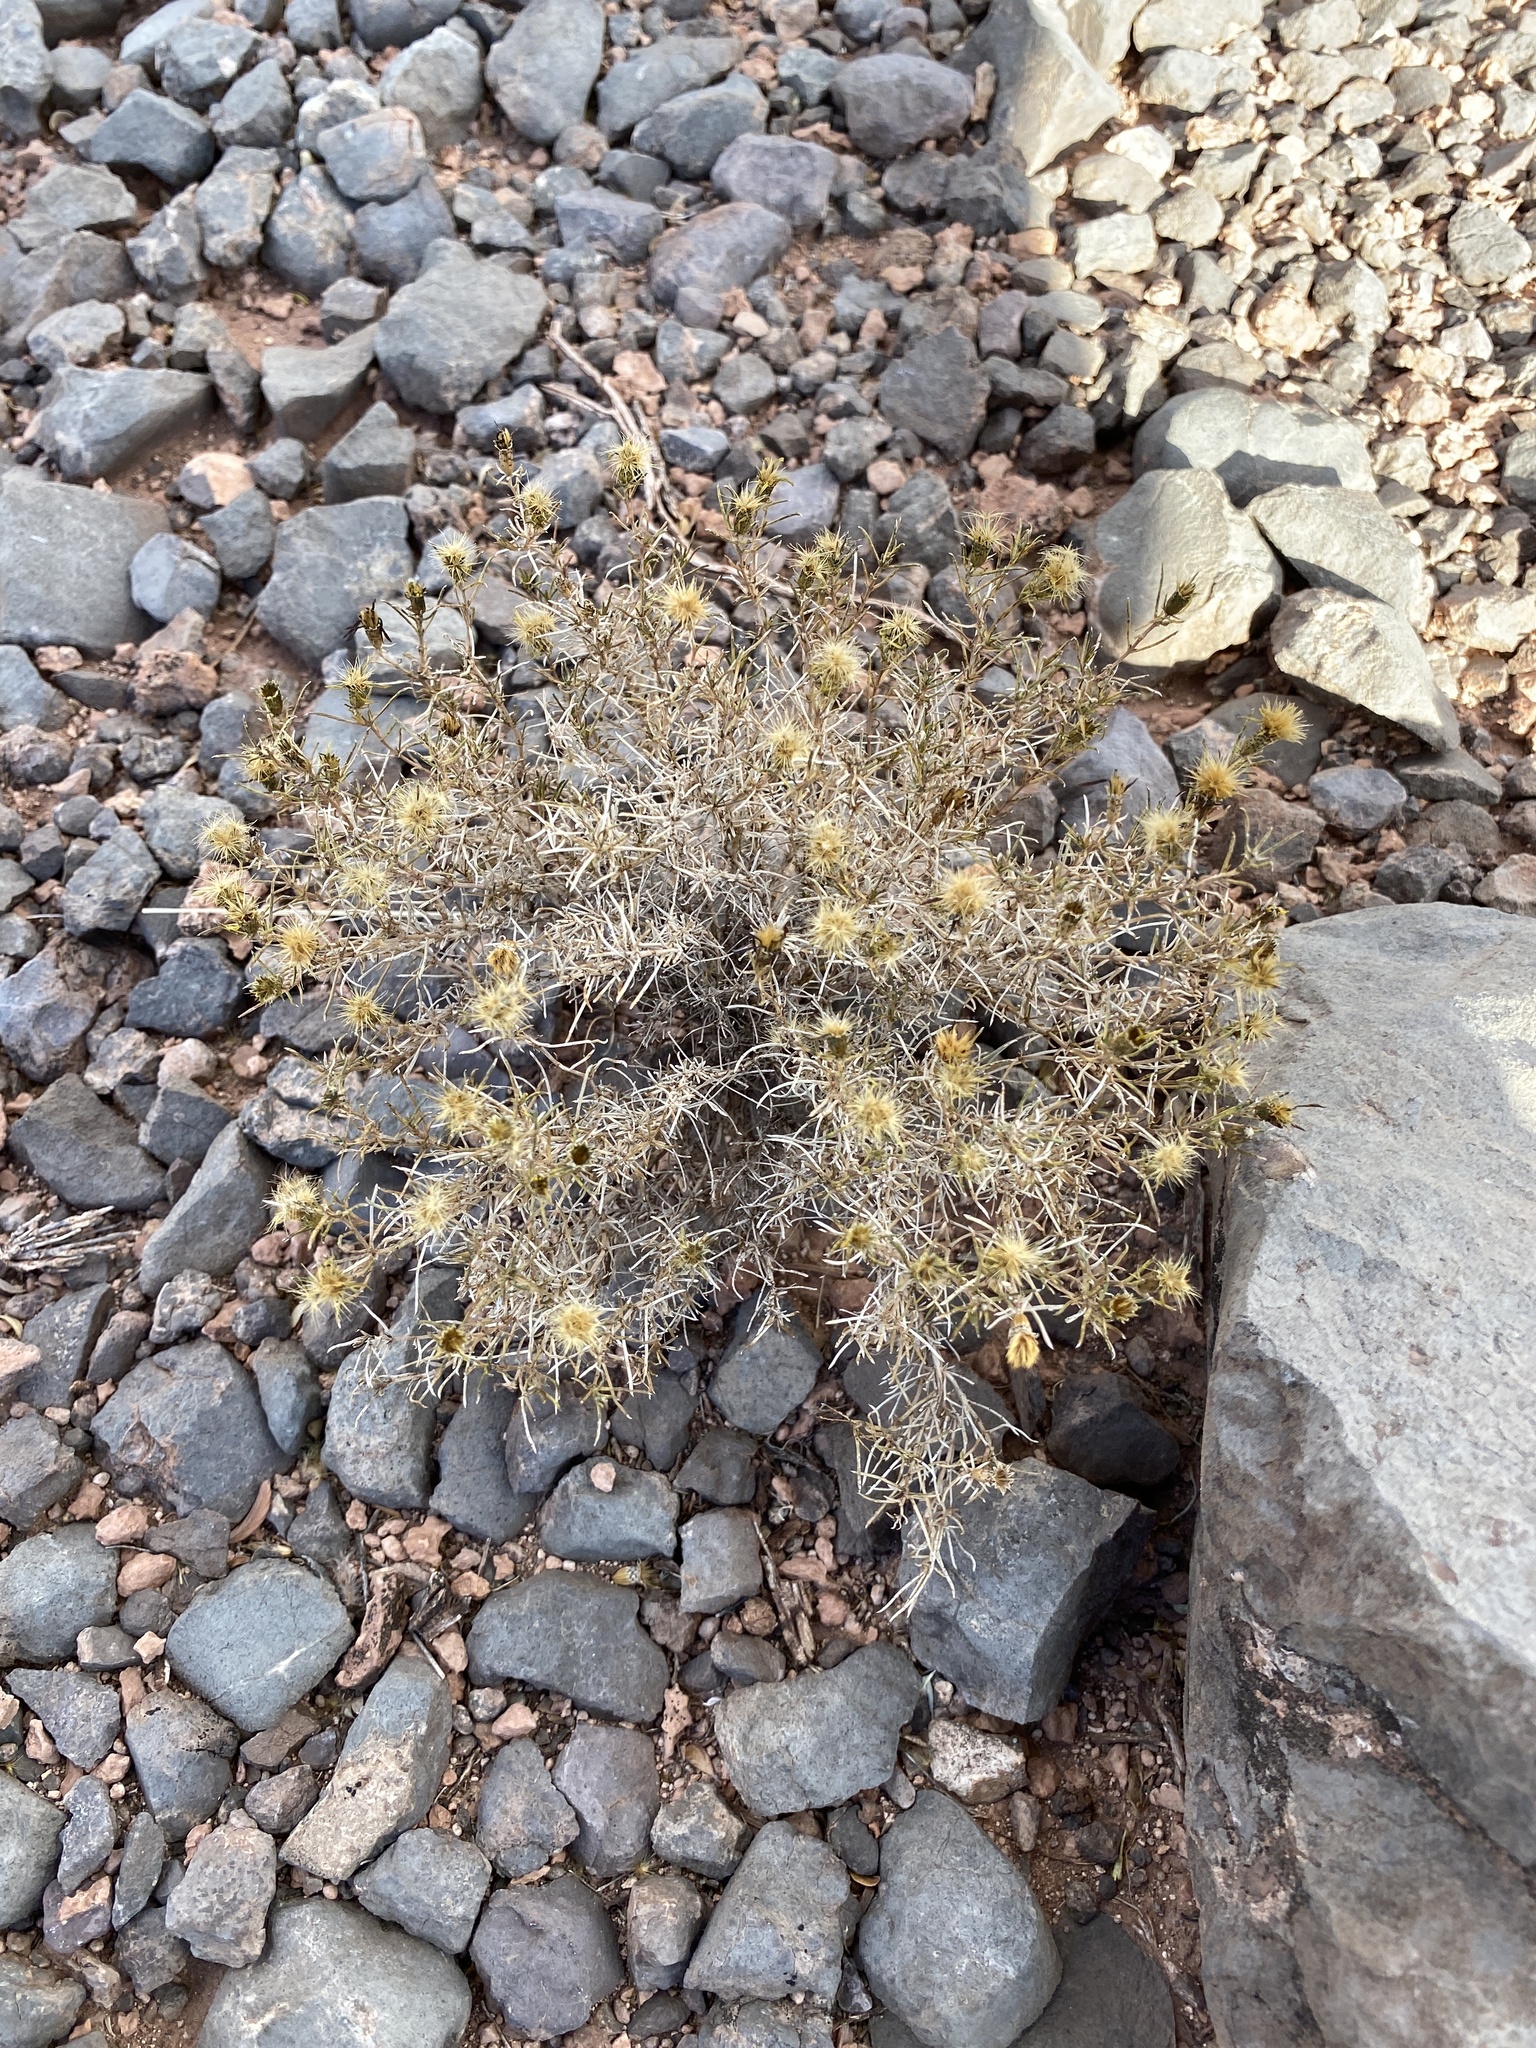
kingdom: Plantae
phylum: Tracheophyta
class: Magnoliopsida
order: Asterales
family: Asteraceae
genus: Thymophylla
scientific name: Thymophylla acerosa
